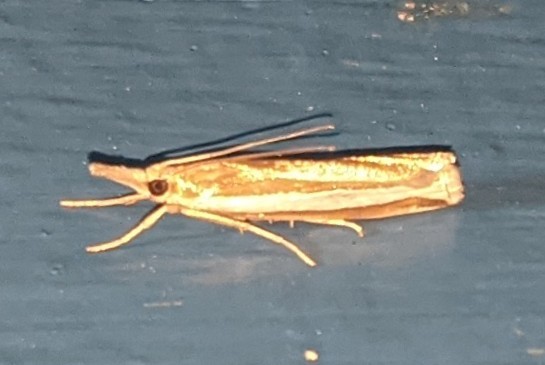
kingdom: Animalia
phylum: Arthropoda
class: Insecta
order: Lepidoptera
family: Crambidae
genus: Crambus
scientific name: Crambus unistriatellus
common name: Wide-stripe grass-veneer moth
